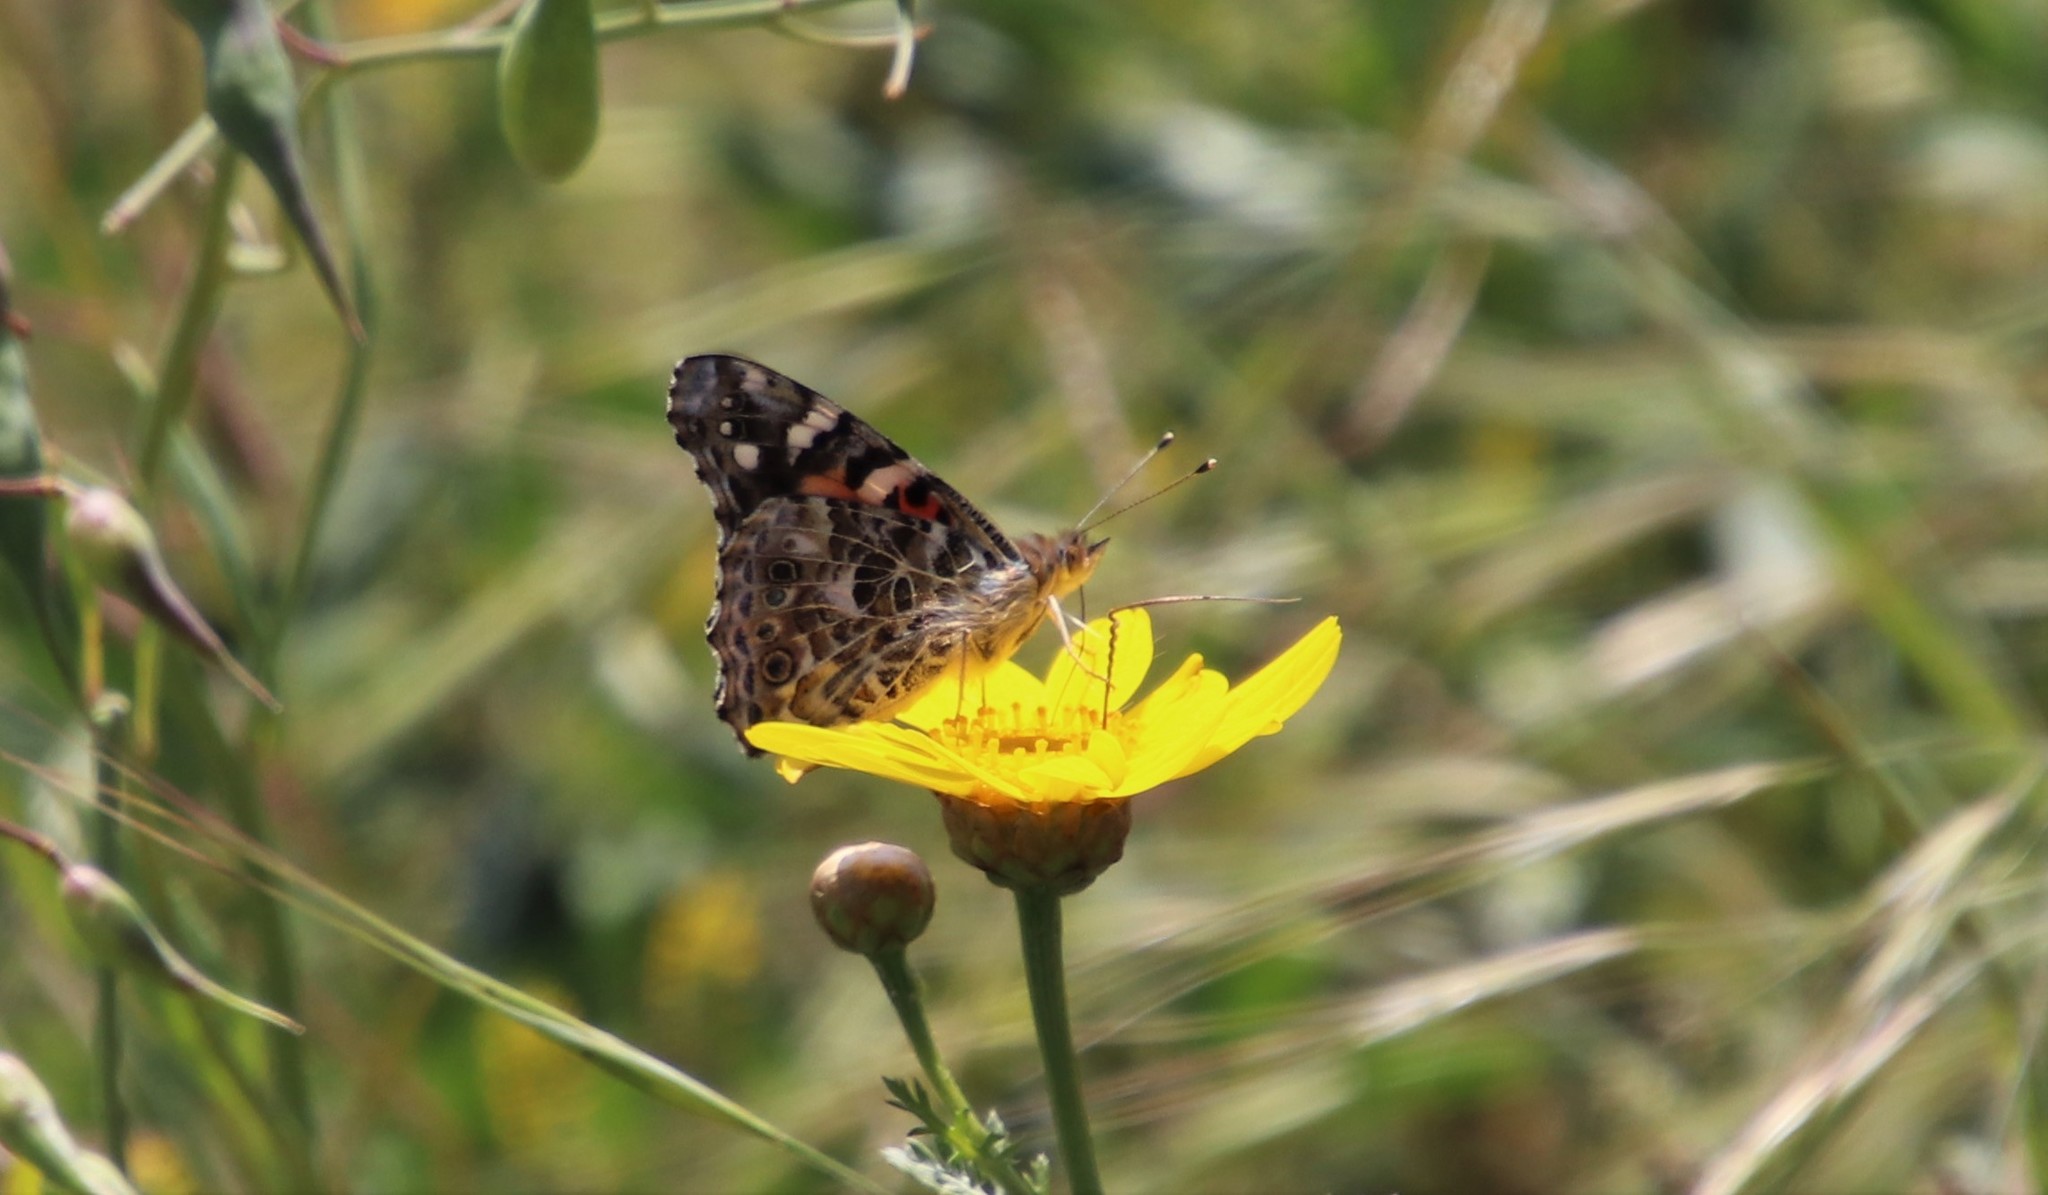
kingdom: Animalia
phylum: Arthropoda
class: Insecta
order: Lepidoptera
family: Nymphalidae
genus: Vanessa
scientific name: Vanessa cardui
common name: Painted lady
